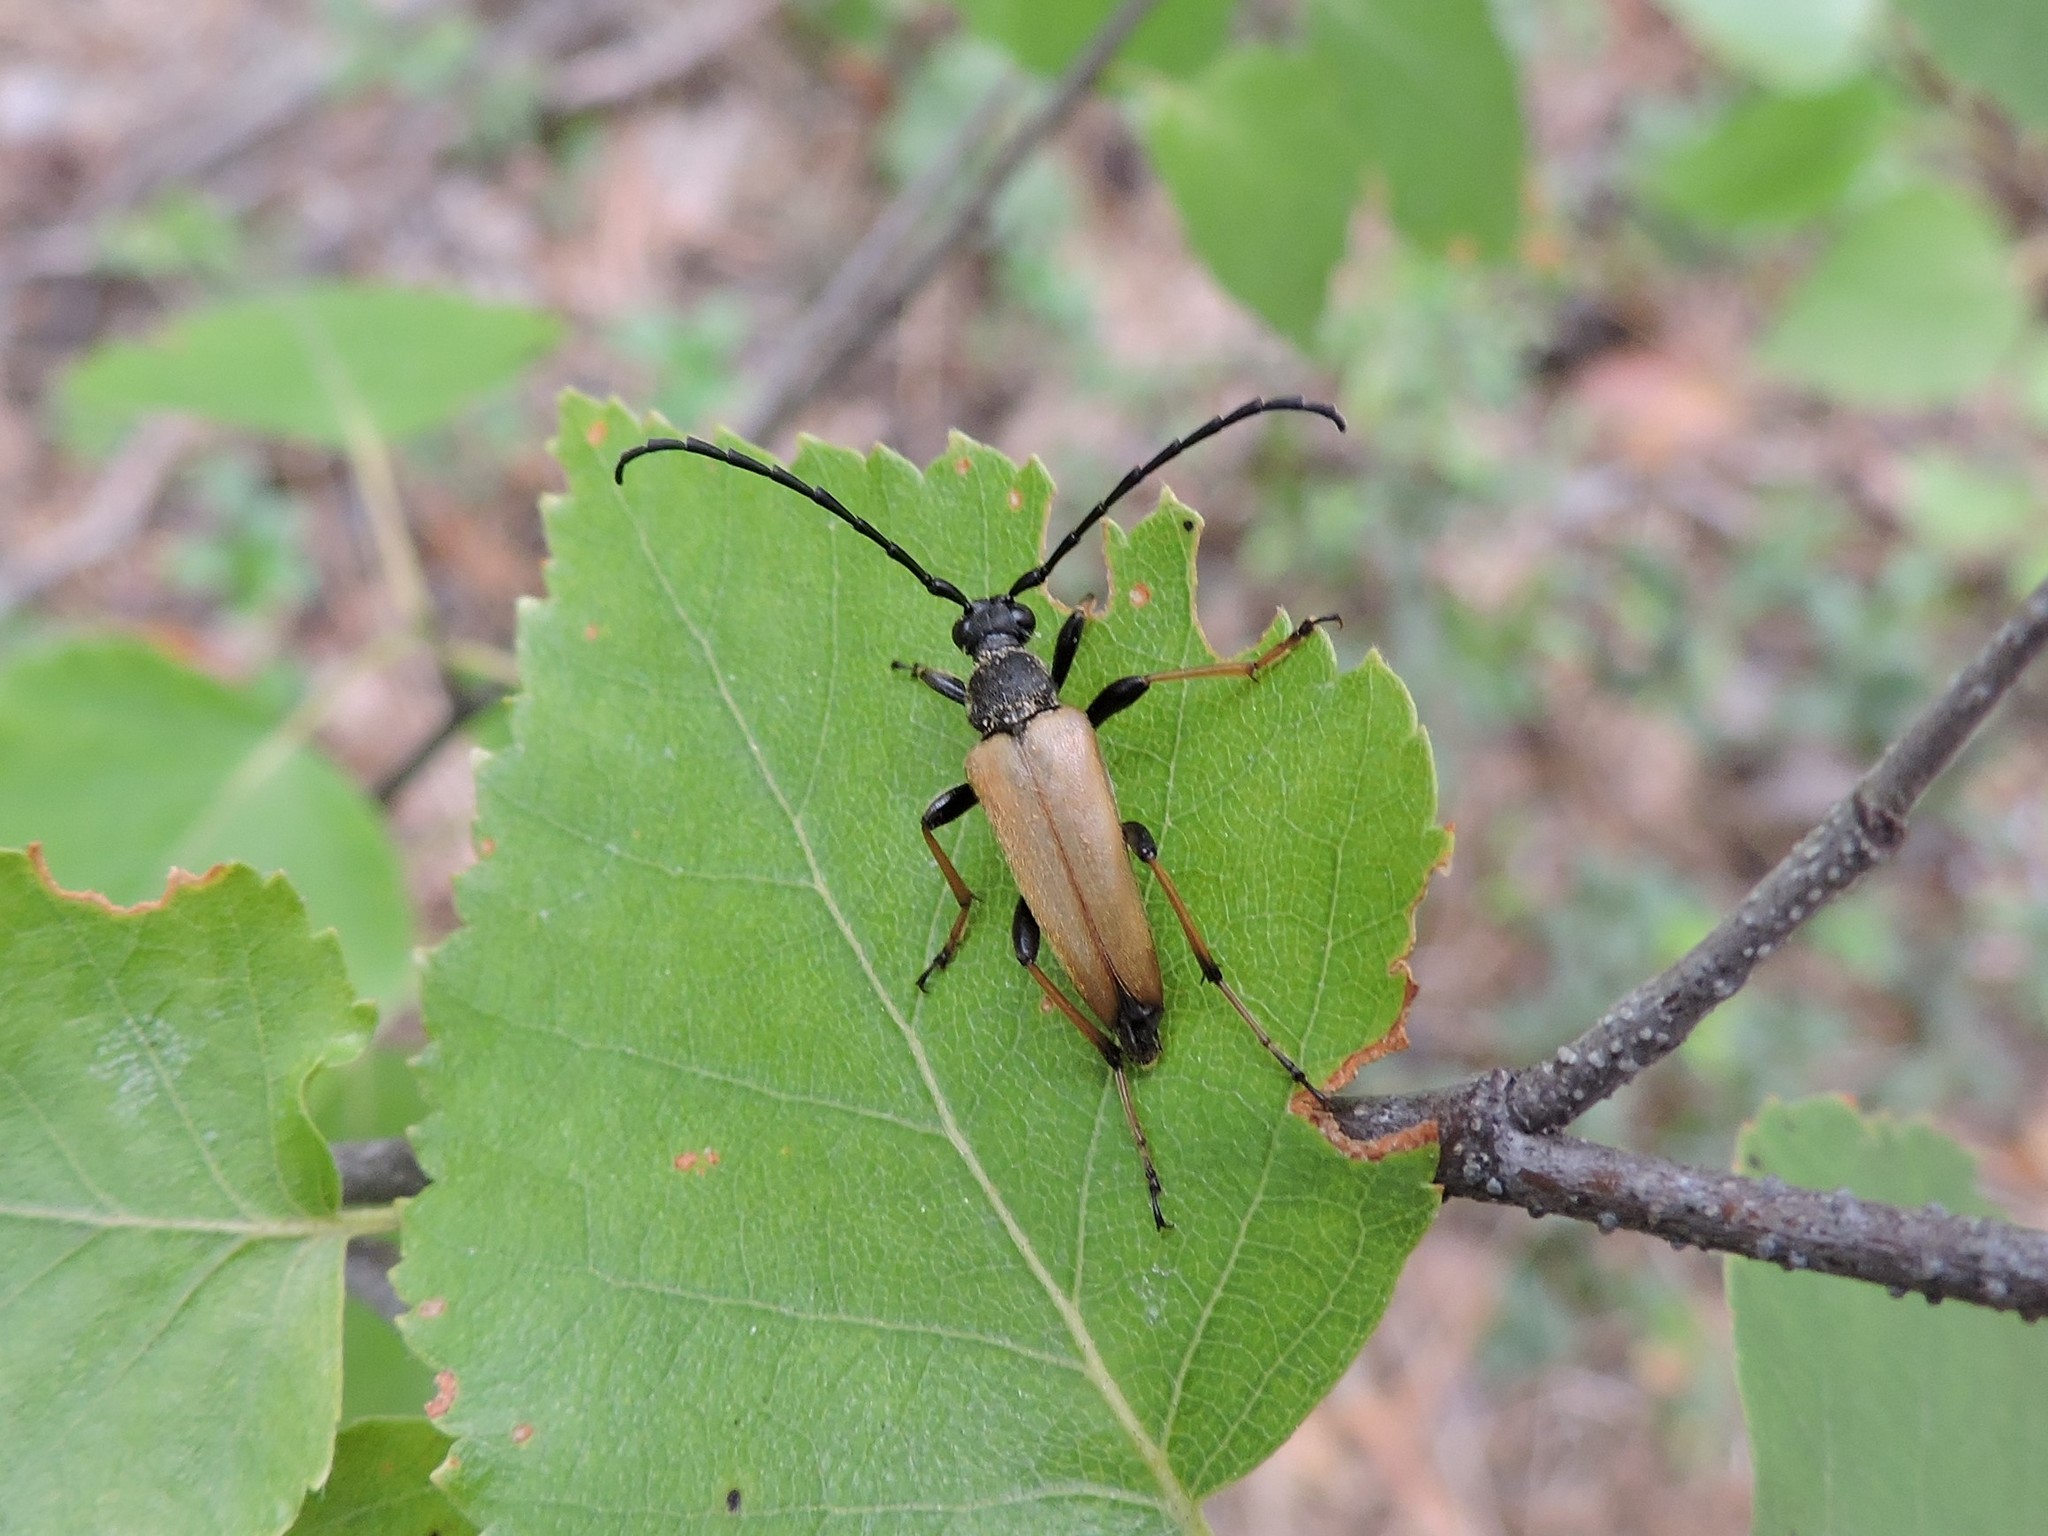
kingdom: Animalia
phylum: Arthropoda
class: Insecta
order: Coleoptera
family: Cerambycidae
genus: Stictoleptura
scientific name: Stictoleptura rubra
